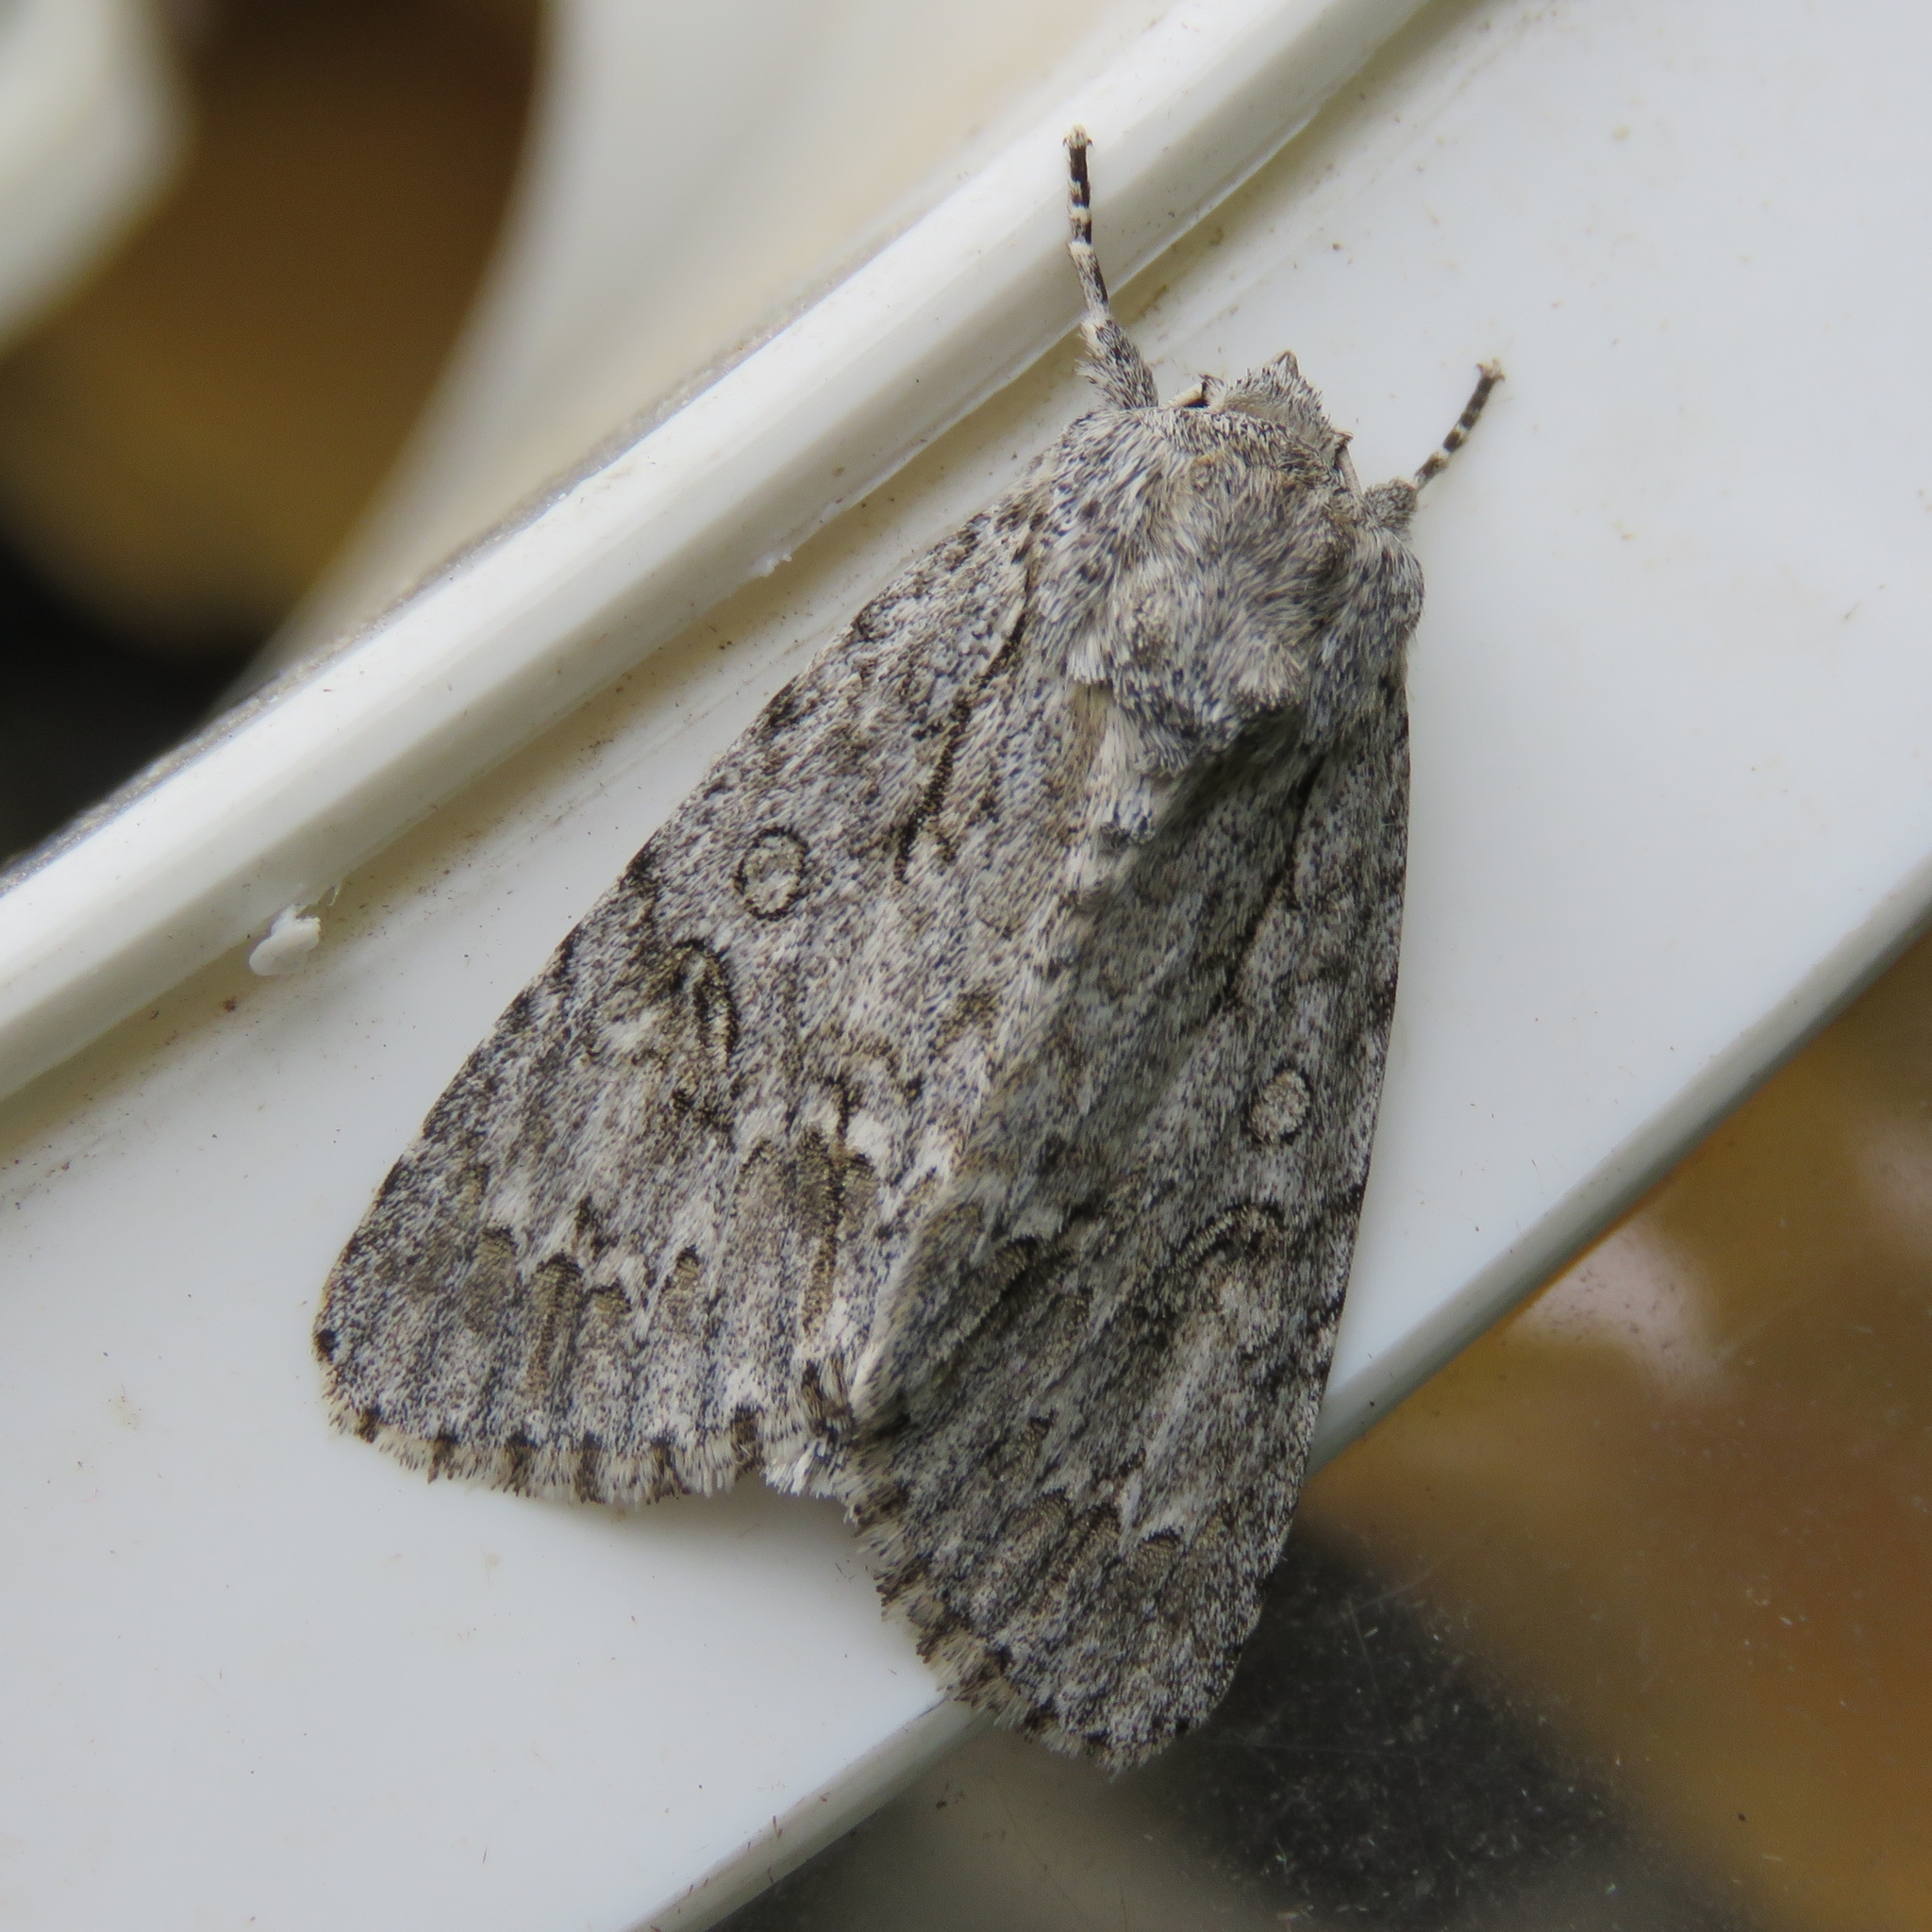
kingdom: Animalia
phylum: Arthropoda
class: Insecta
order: Lepidoptera
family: Noctuidae
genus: Acronicta
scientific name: Acronicta aceris
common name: Sycamore
